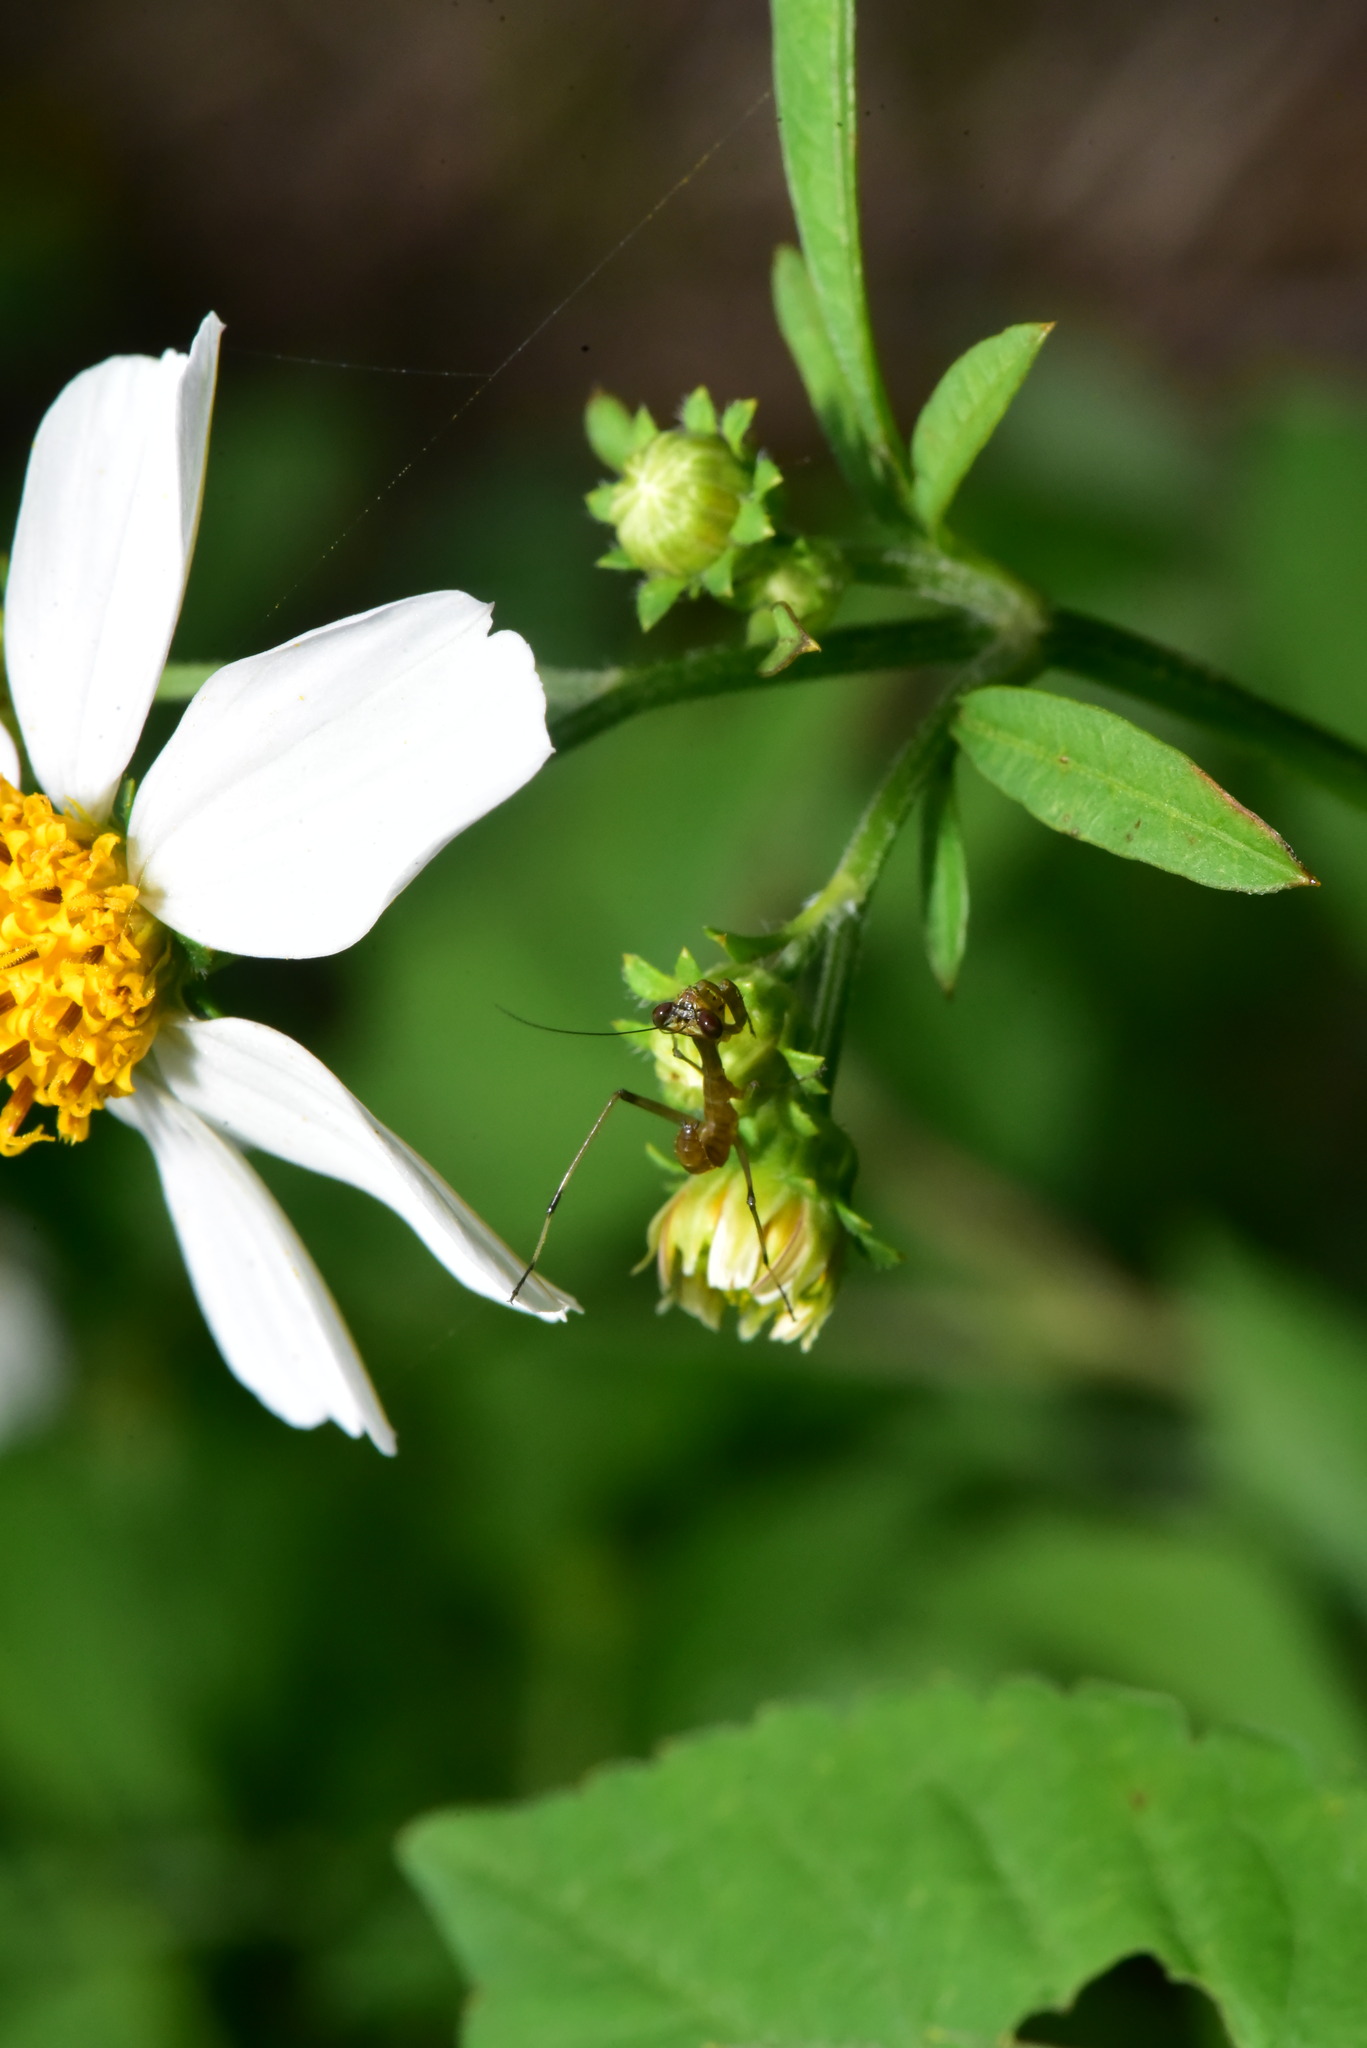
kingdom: Animalia
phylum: Arthropoda
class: Insecta
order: Mantodea
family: Mantidae
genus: Titanodula
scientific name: Titanodula formosana
